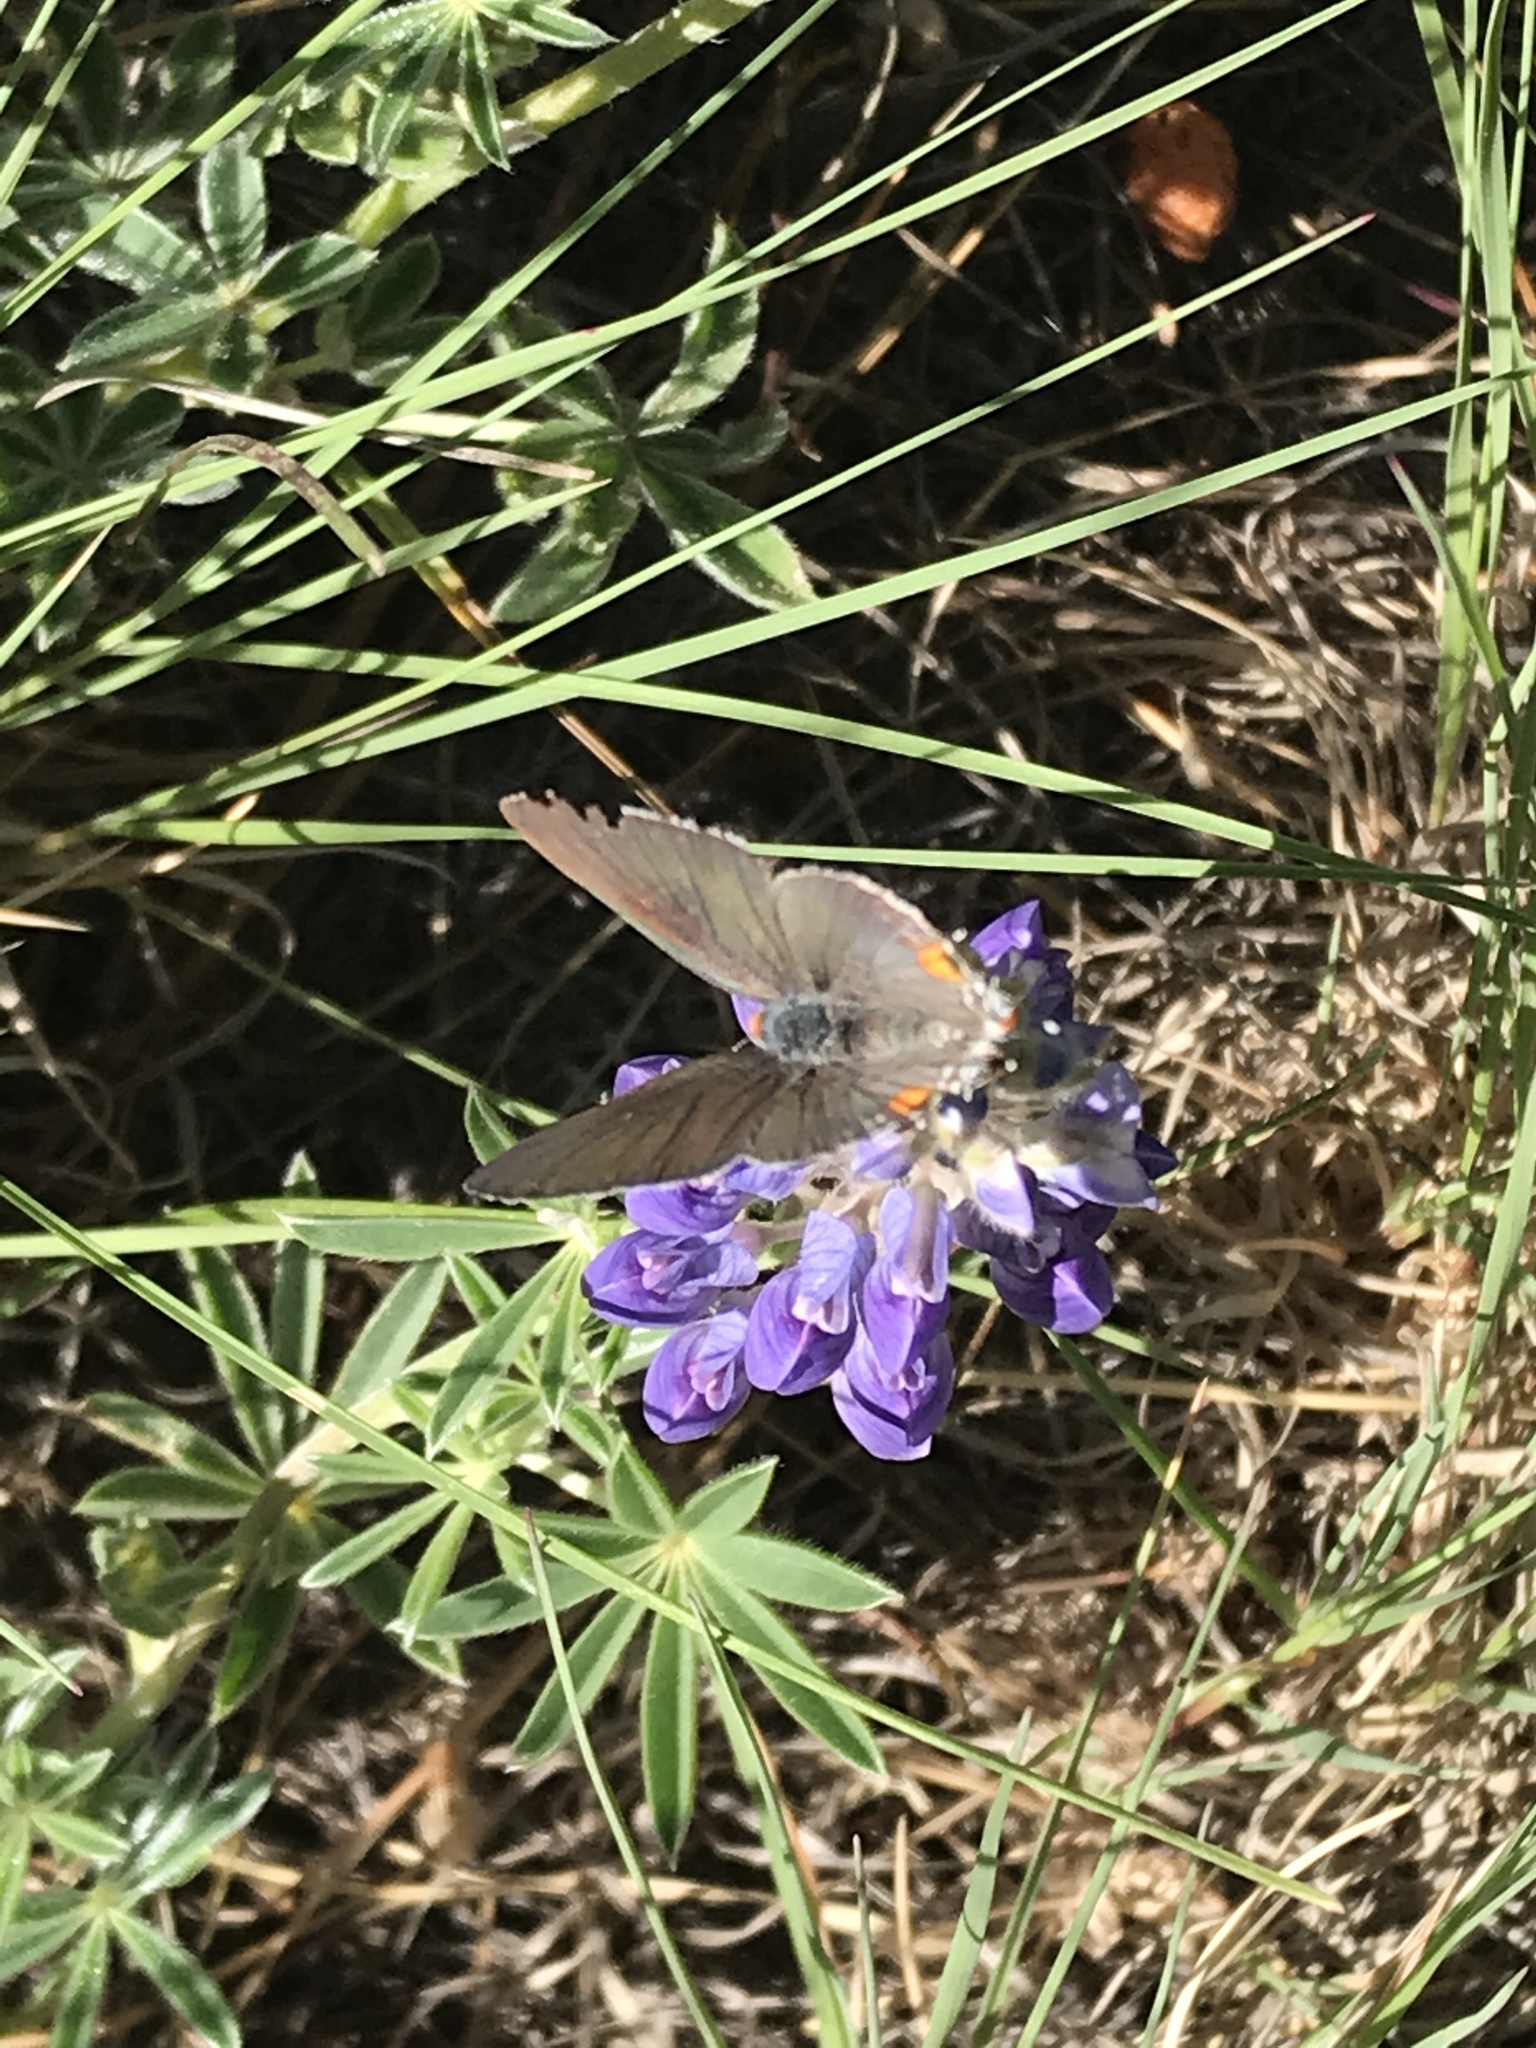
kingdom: Animalia
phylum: Arthropoda
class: Insecta
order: Lepidoptera
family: Lycaenidae
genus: Strymon
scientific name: Strymon melinus
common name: Gray hairstreak
